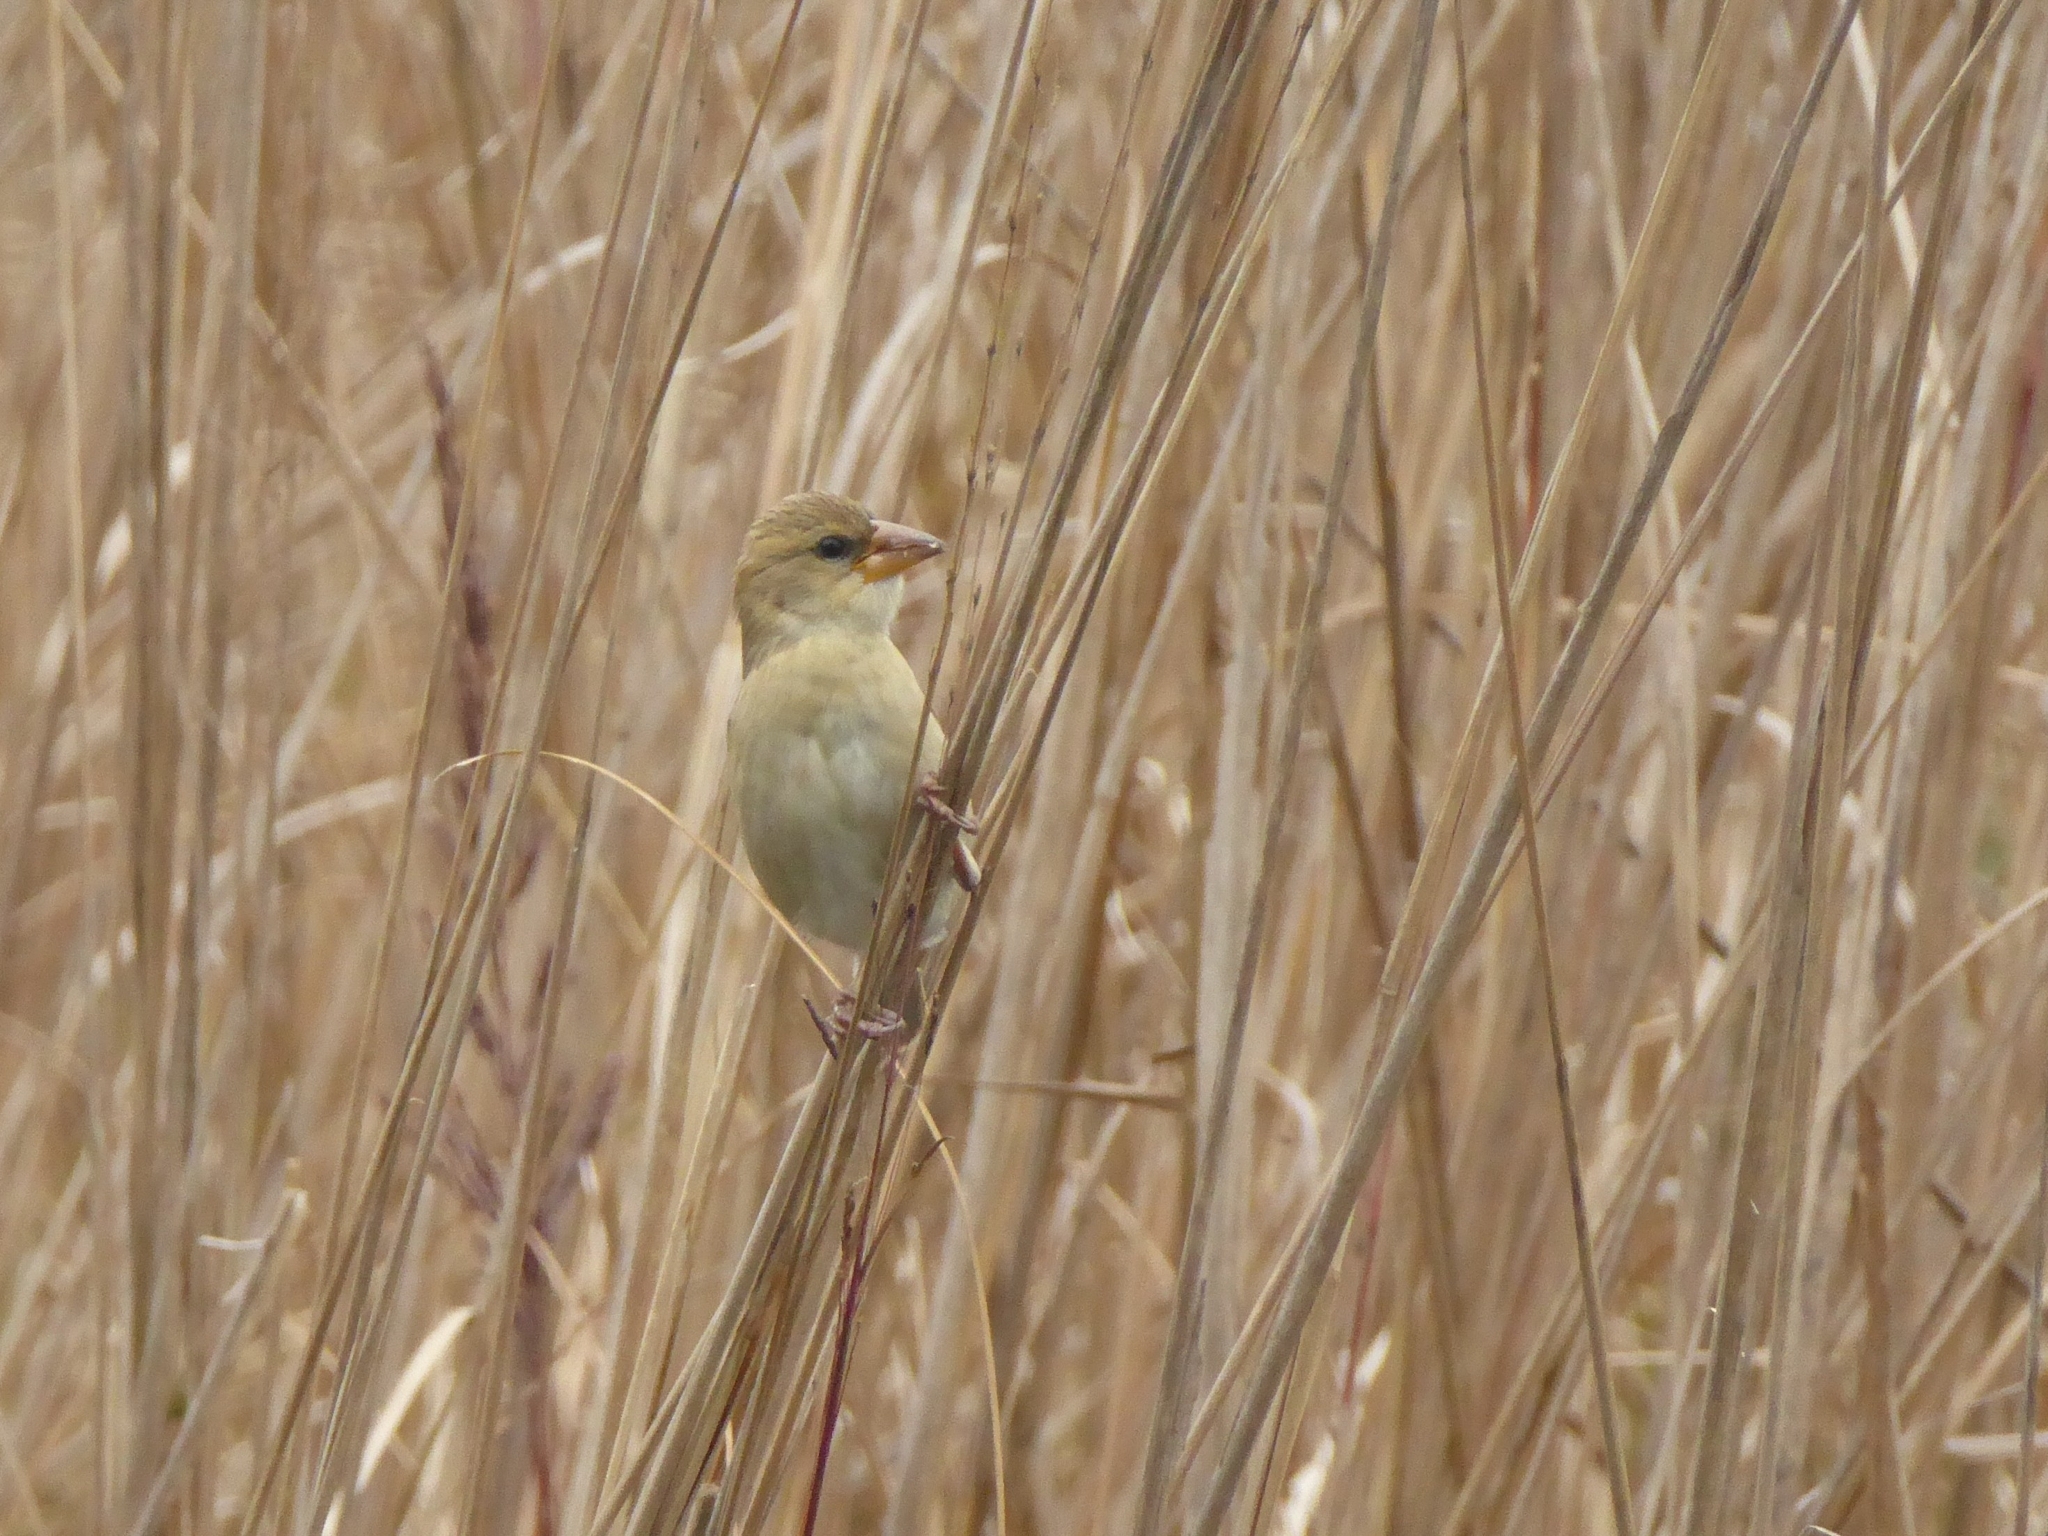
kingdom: Animalia
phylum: Chordata
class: Aves
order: Passeriformes
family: Ploceidae
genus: Ploceus
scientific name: Ploceus philippinus
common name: Baya weaver
